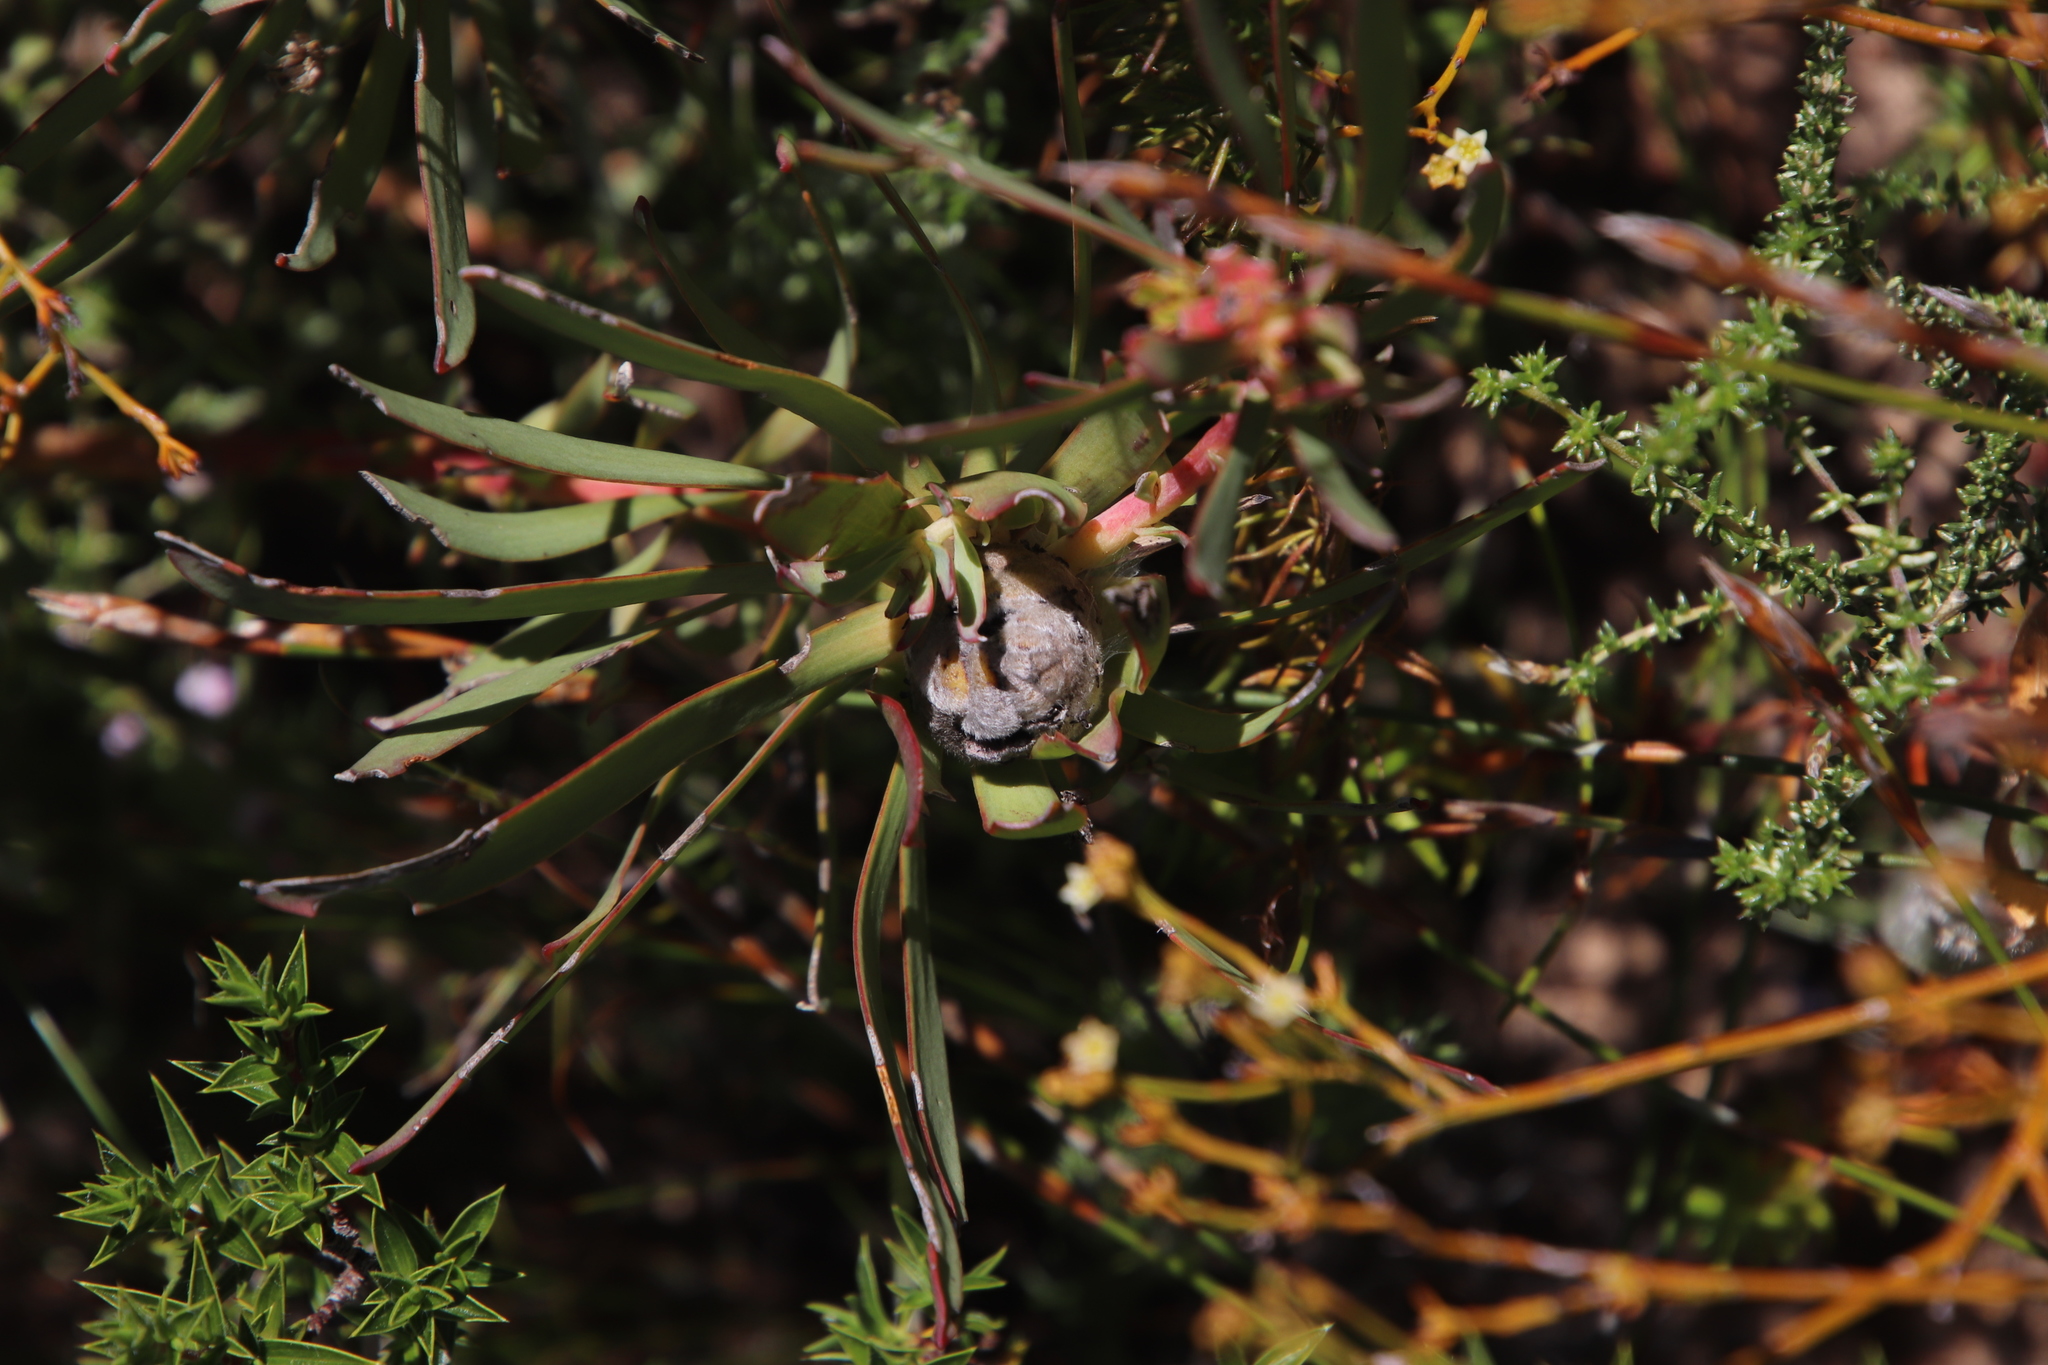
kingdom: Plantae
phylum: Tracheophyta
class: Magnoliopsida
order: Proteales
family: Proteaceae
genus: Leucadendron
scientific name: Leucadendron salignum
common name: Common sunshine conebush
